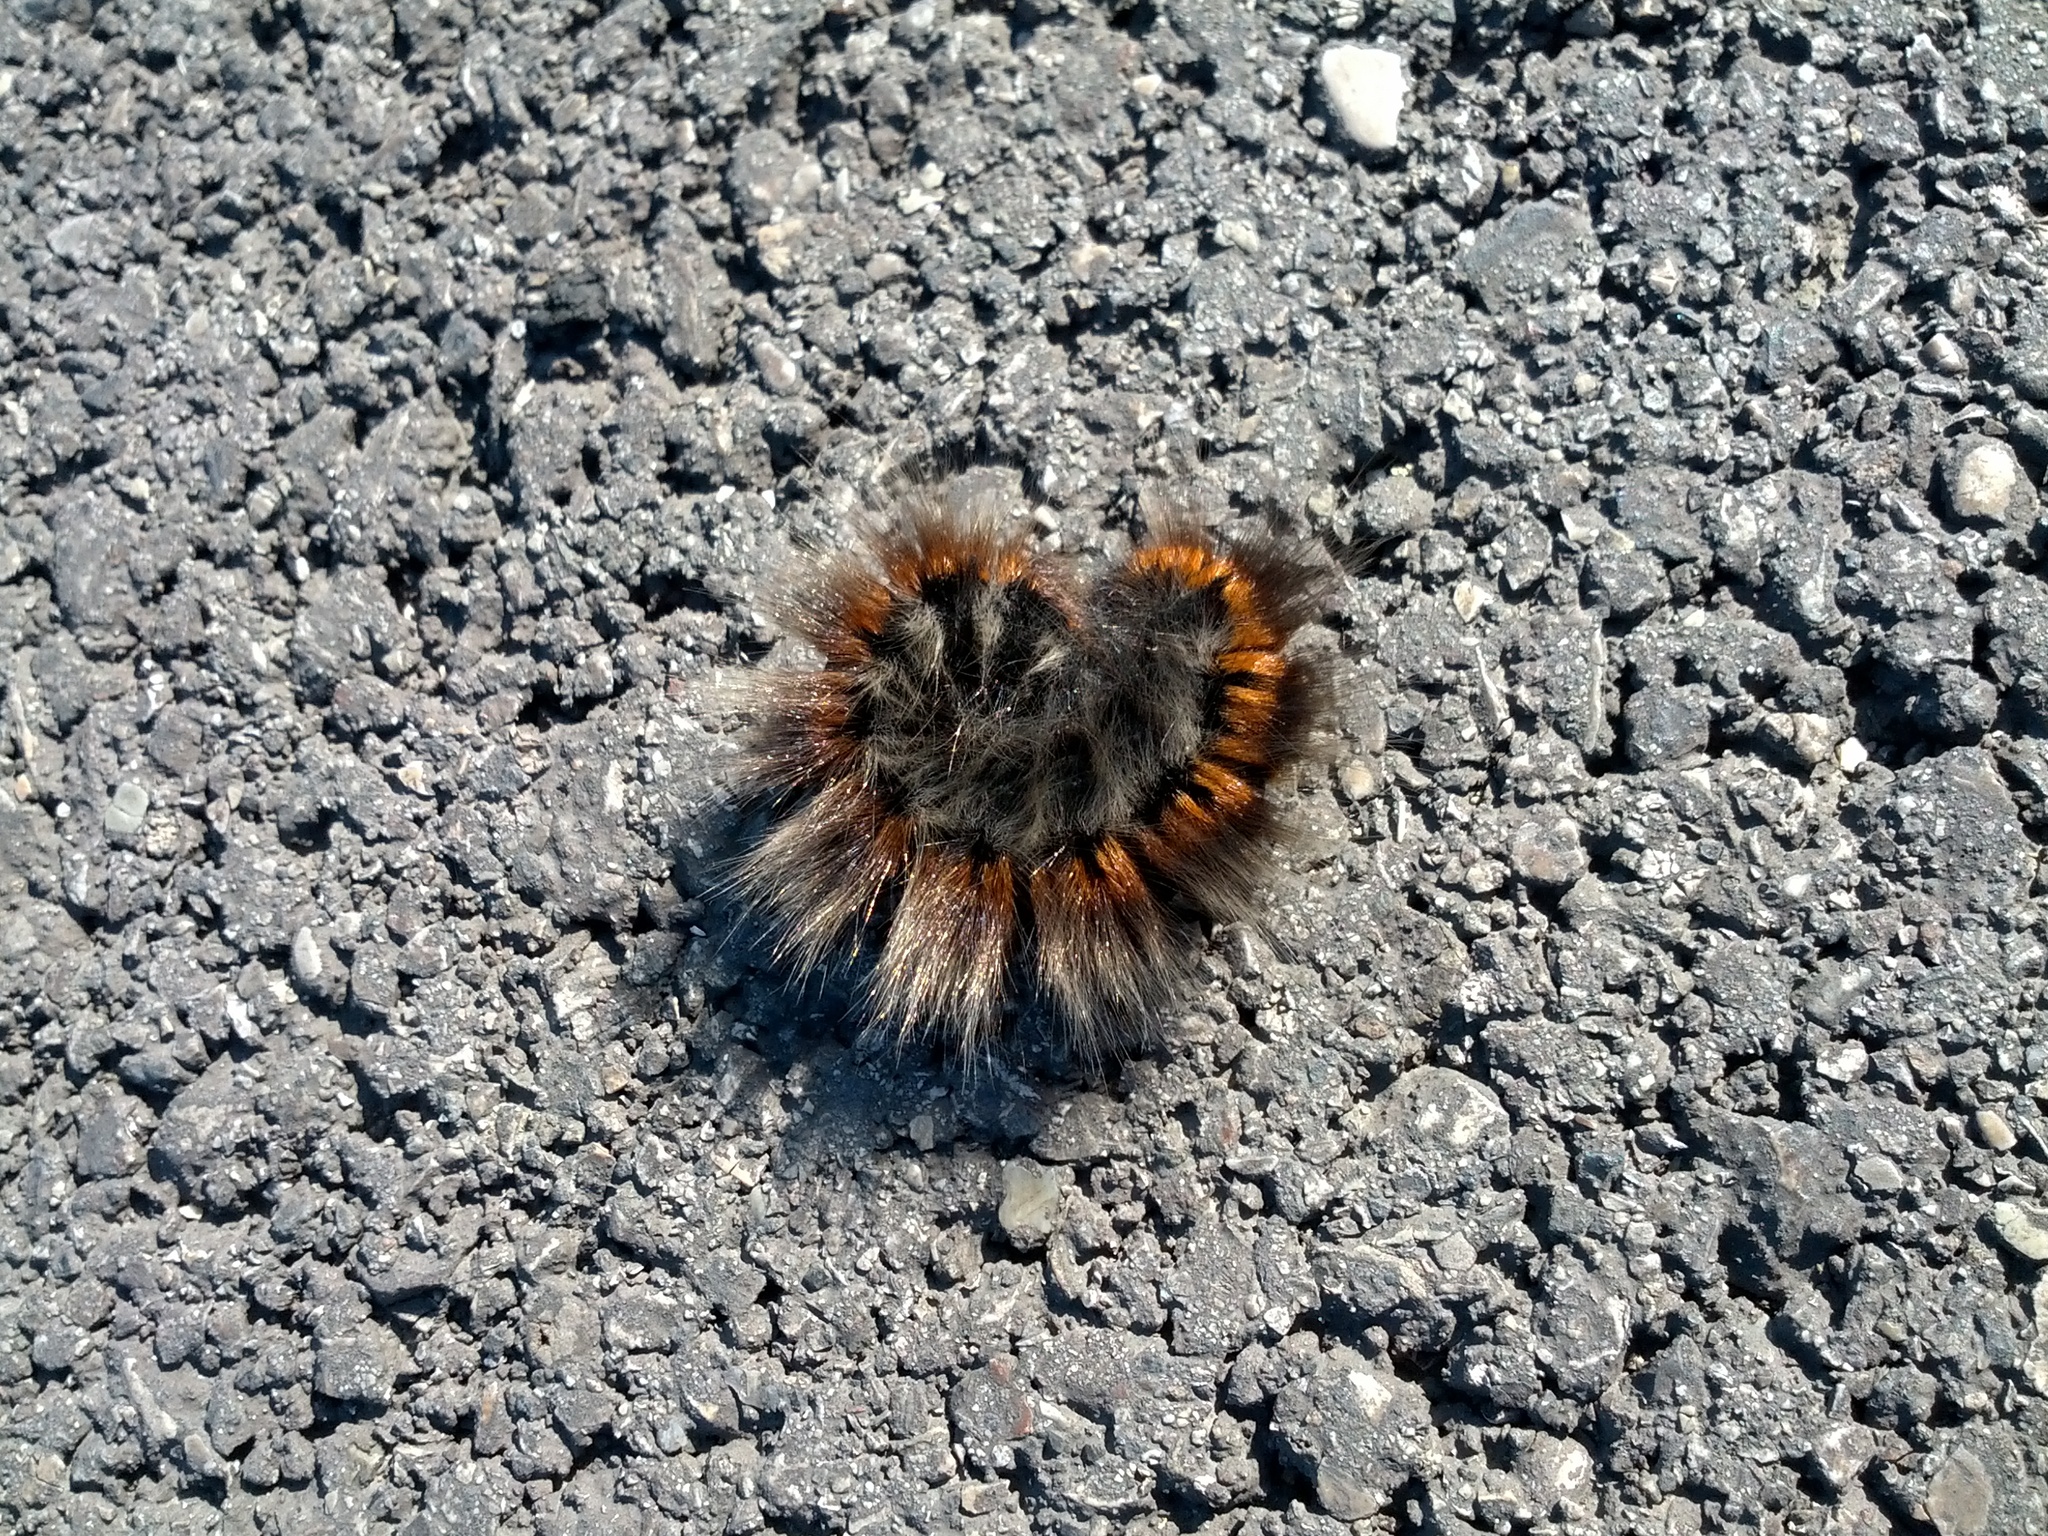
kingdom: Animalia
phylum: Arthropoda
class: Insecta
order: Lepidoptera
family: Lasiocampidae
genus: Macrothylacia
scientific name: Macrothylacia rubi
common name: Fox moth
